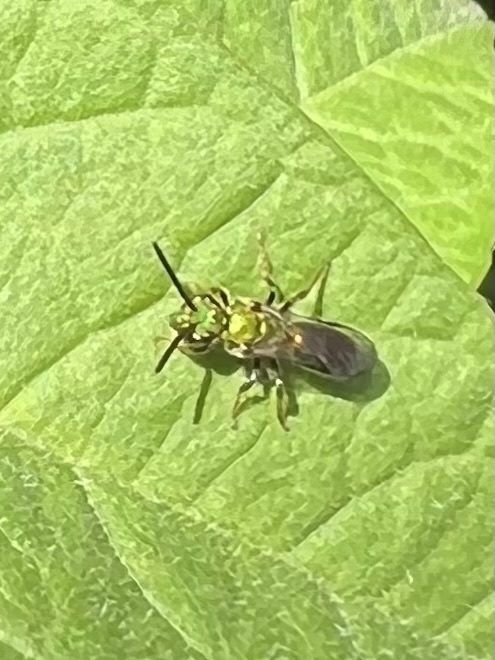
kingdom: Animalia
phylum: Arthropoda
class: Insecta
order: Hymenoptera
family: Halictidae
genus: Augochlora
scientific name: Augochlora pura
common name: Pure green sweat bee
